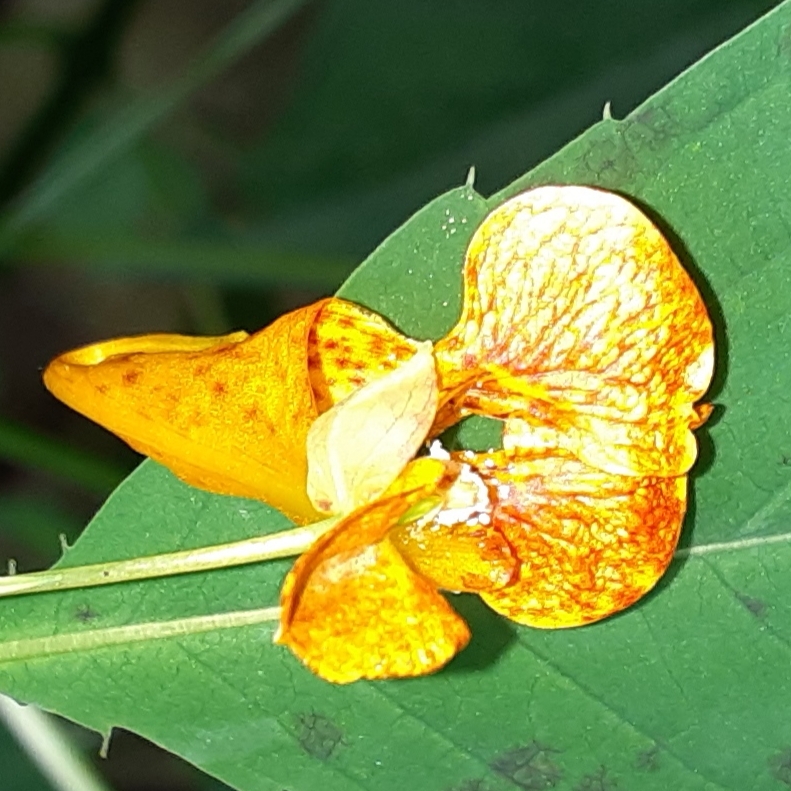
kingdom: Plantae
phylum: Tracheophyta
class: Magnoliopsida
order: Ericales
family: Balsaminaceae
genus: Impatiens
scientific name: Impatiens capensis
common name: Orange balsam
